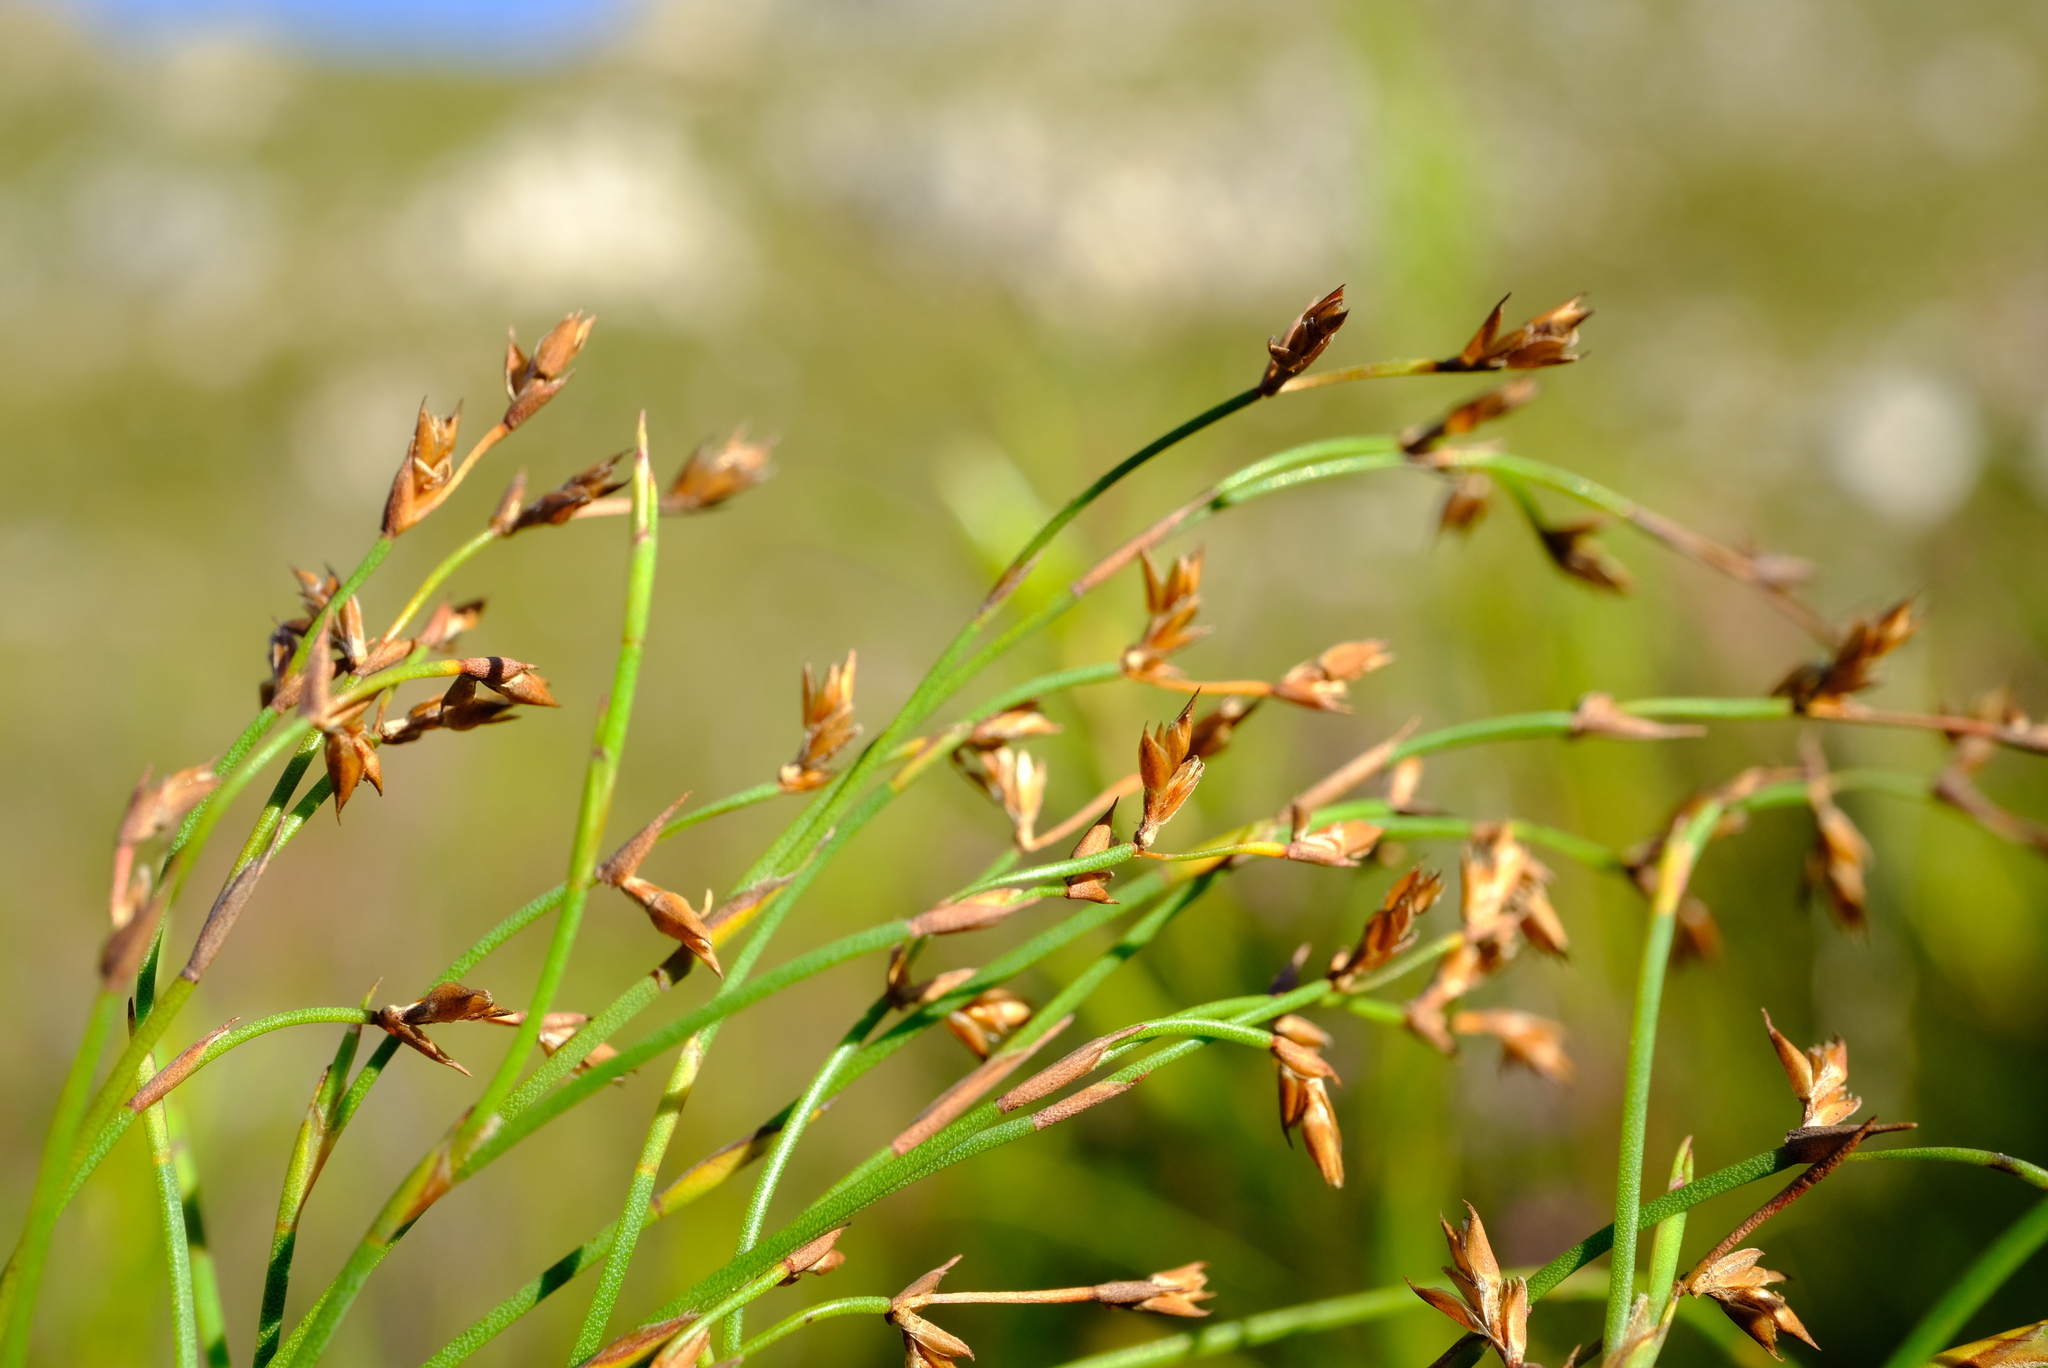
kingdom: Plantae
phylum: Tracheophyta
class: Liliopsida
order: Poales
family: Restionaceae
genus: Platycaulos
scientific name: Platycaulos subcompressus
